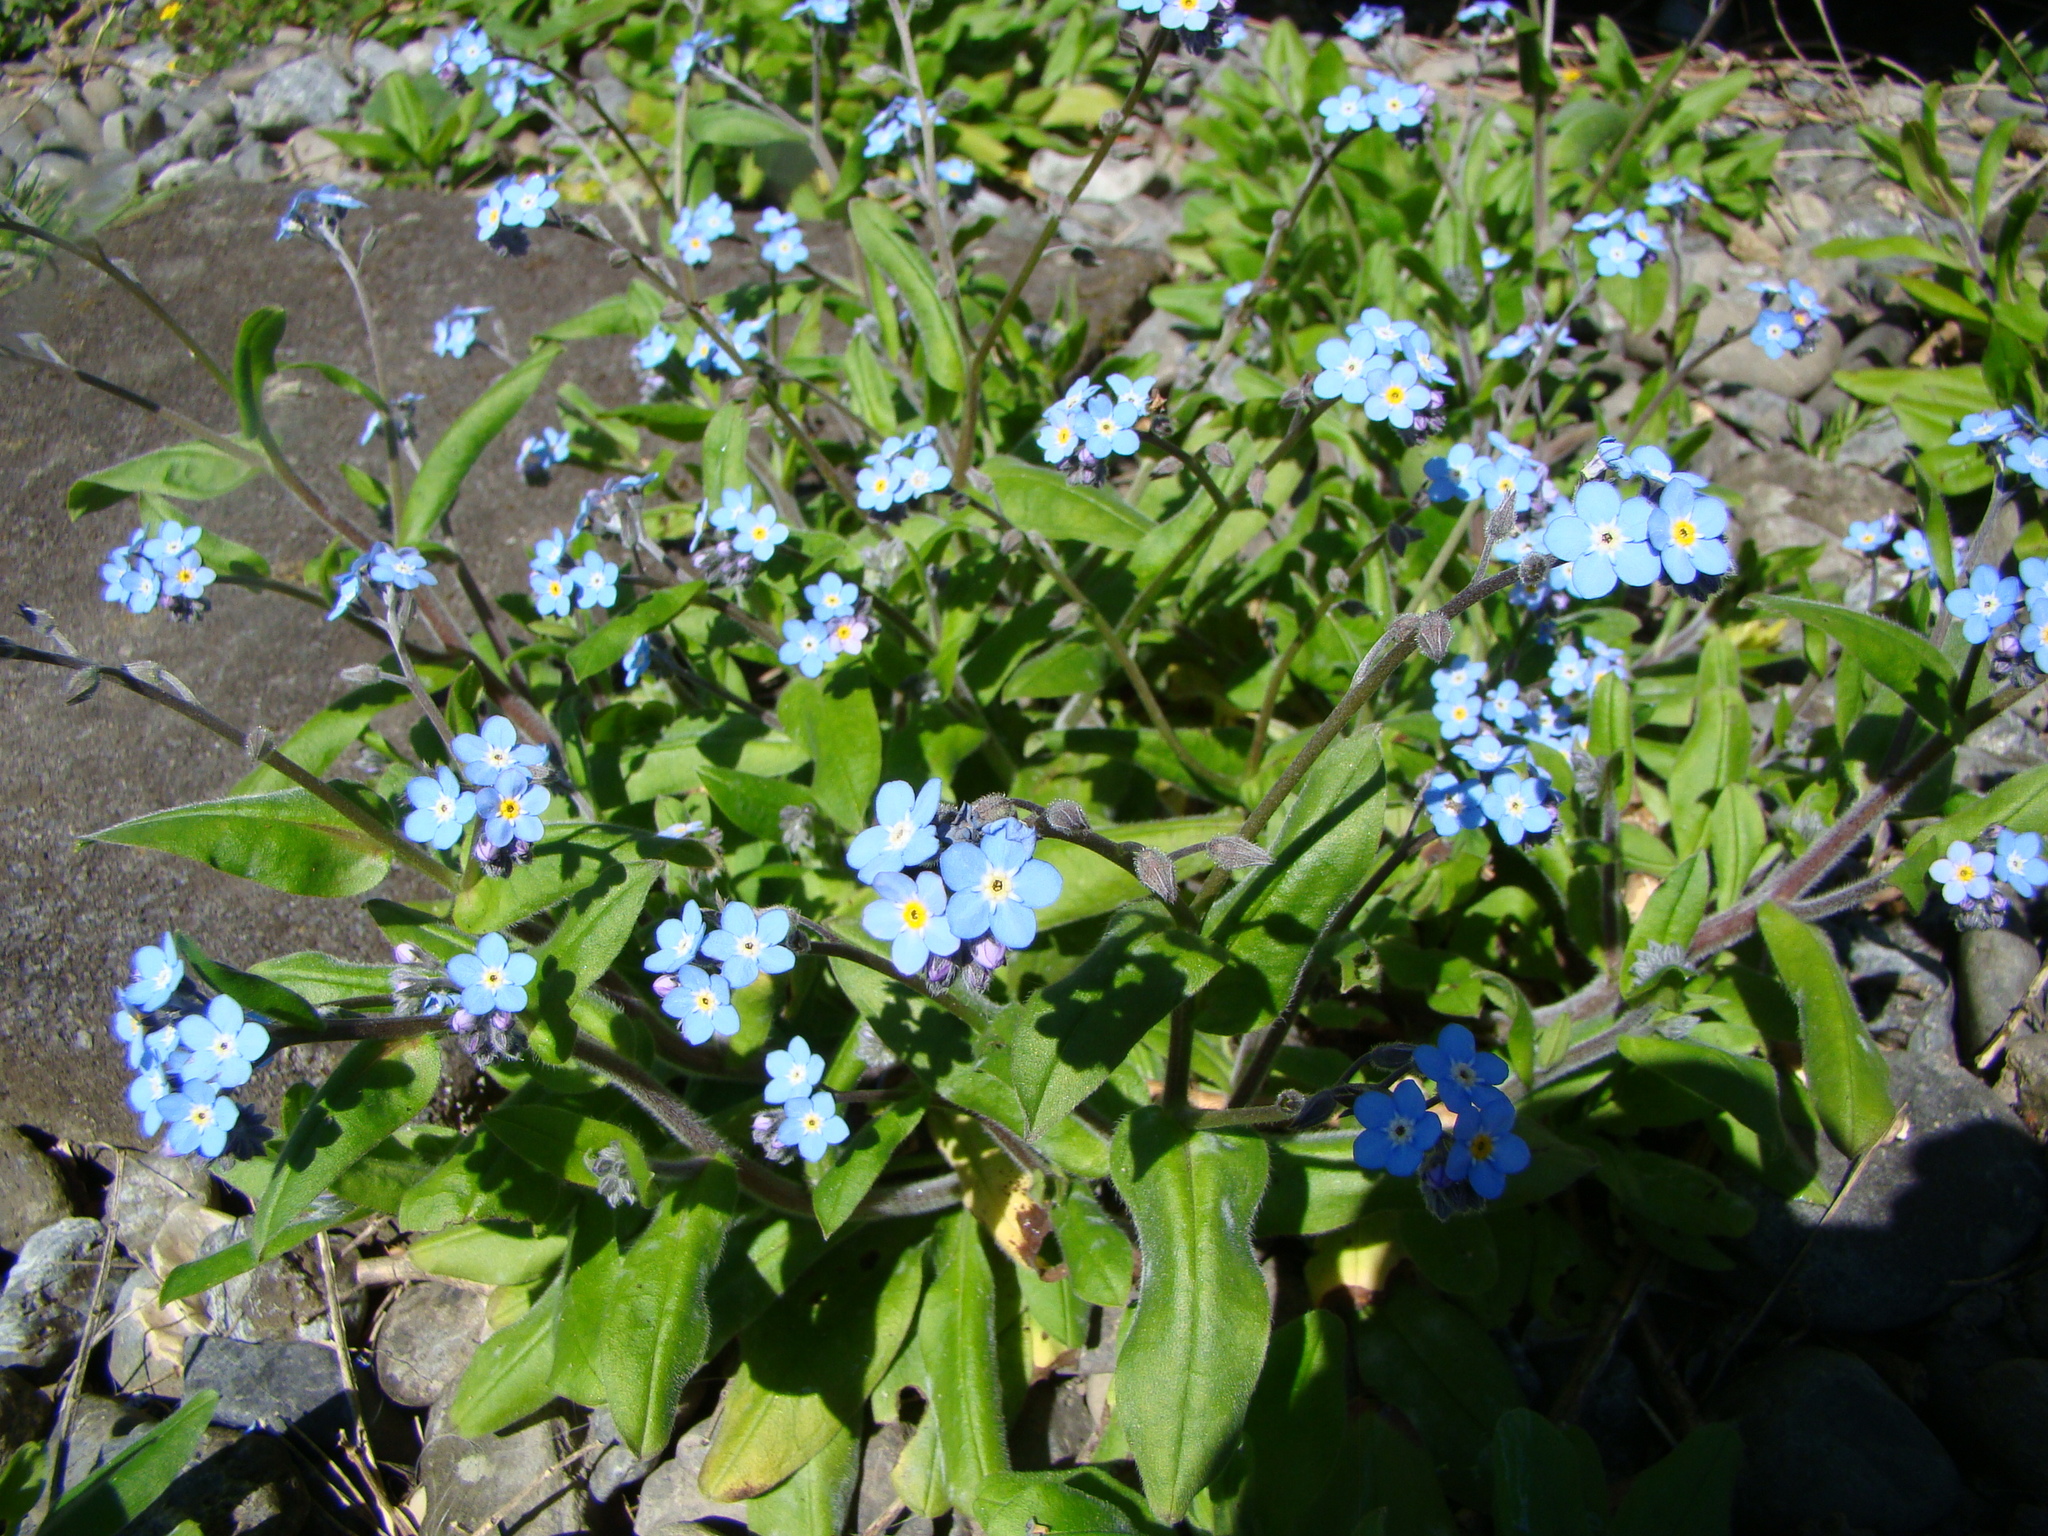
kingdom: Plantae
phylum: Tracheophyta
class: Magnoliopsida
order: Boraginales
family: Boraginaceae
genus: Myosotis
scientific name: Myosotis sylvatica
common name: Wood forget-me-not
